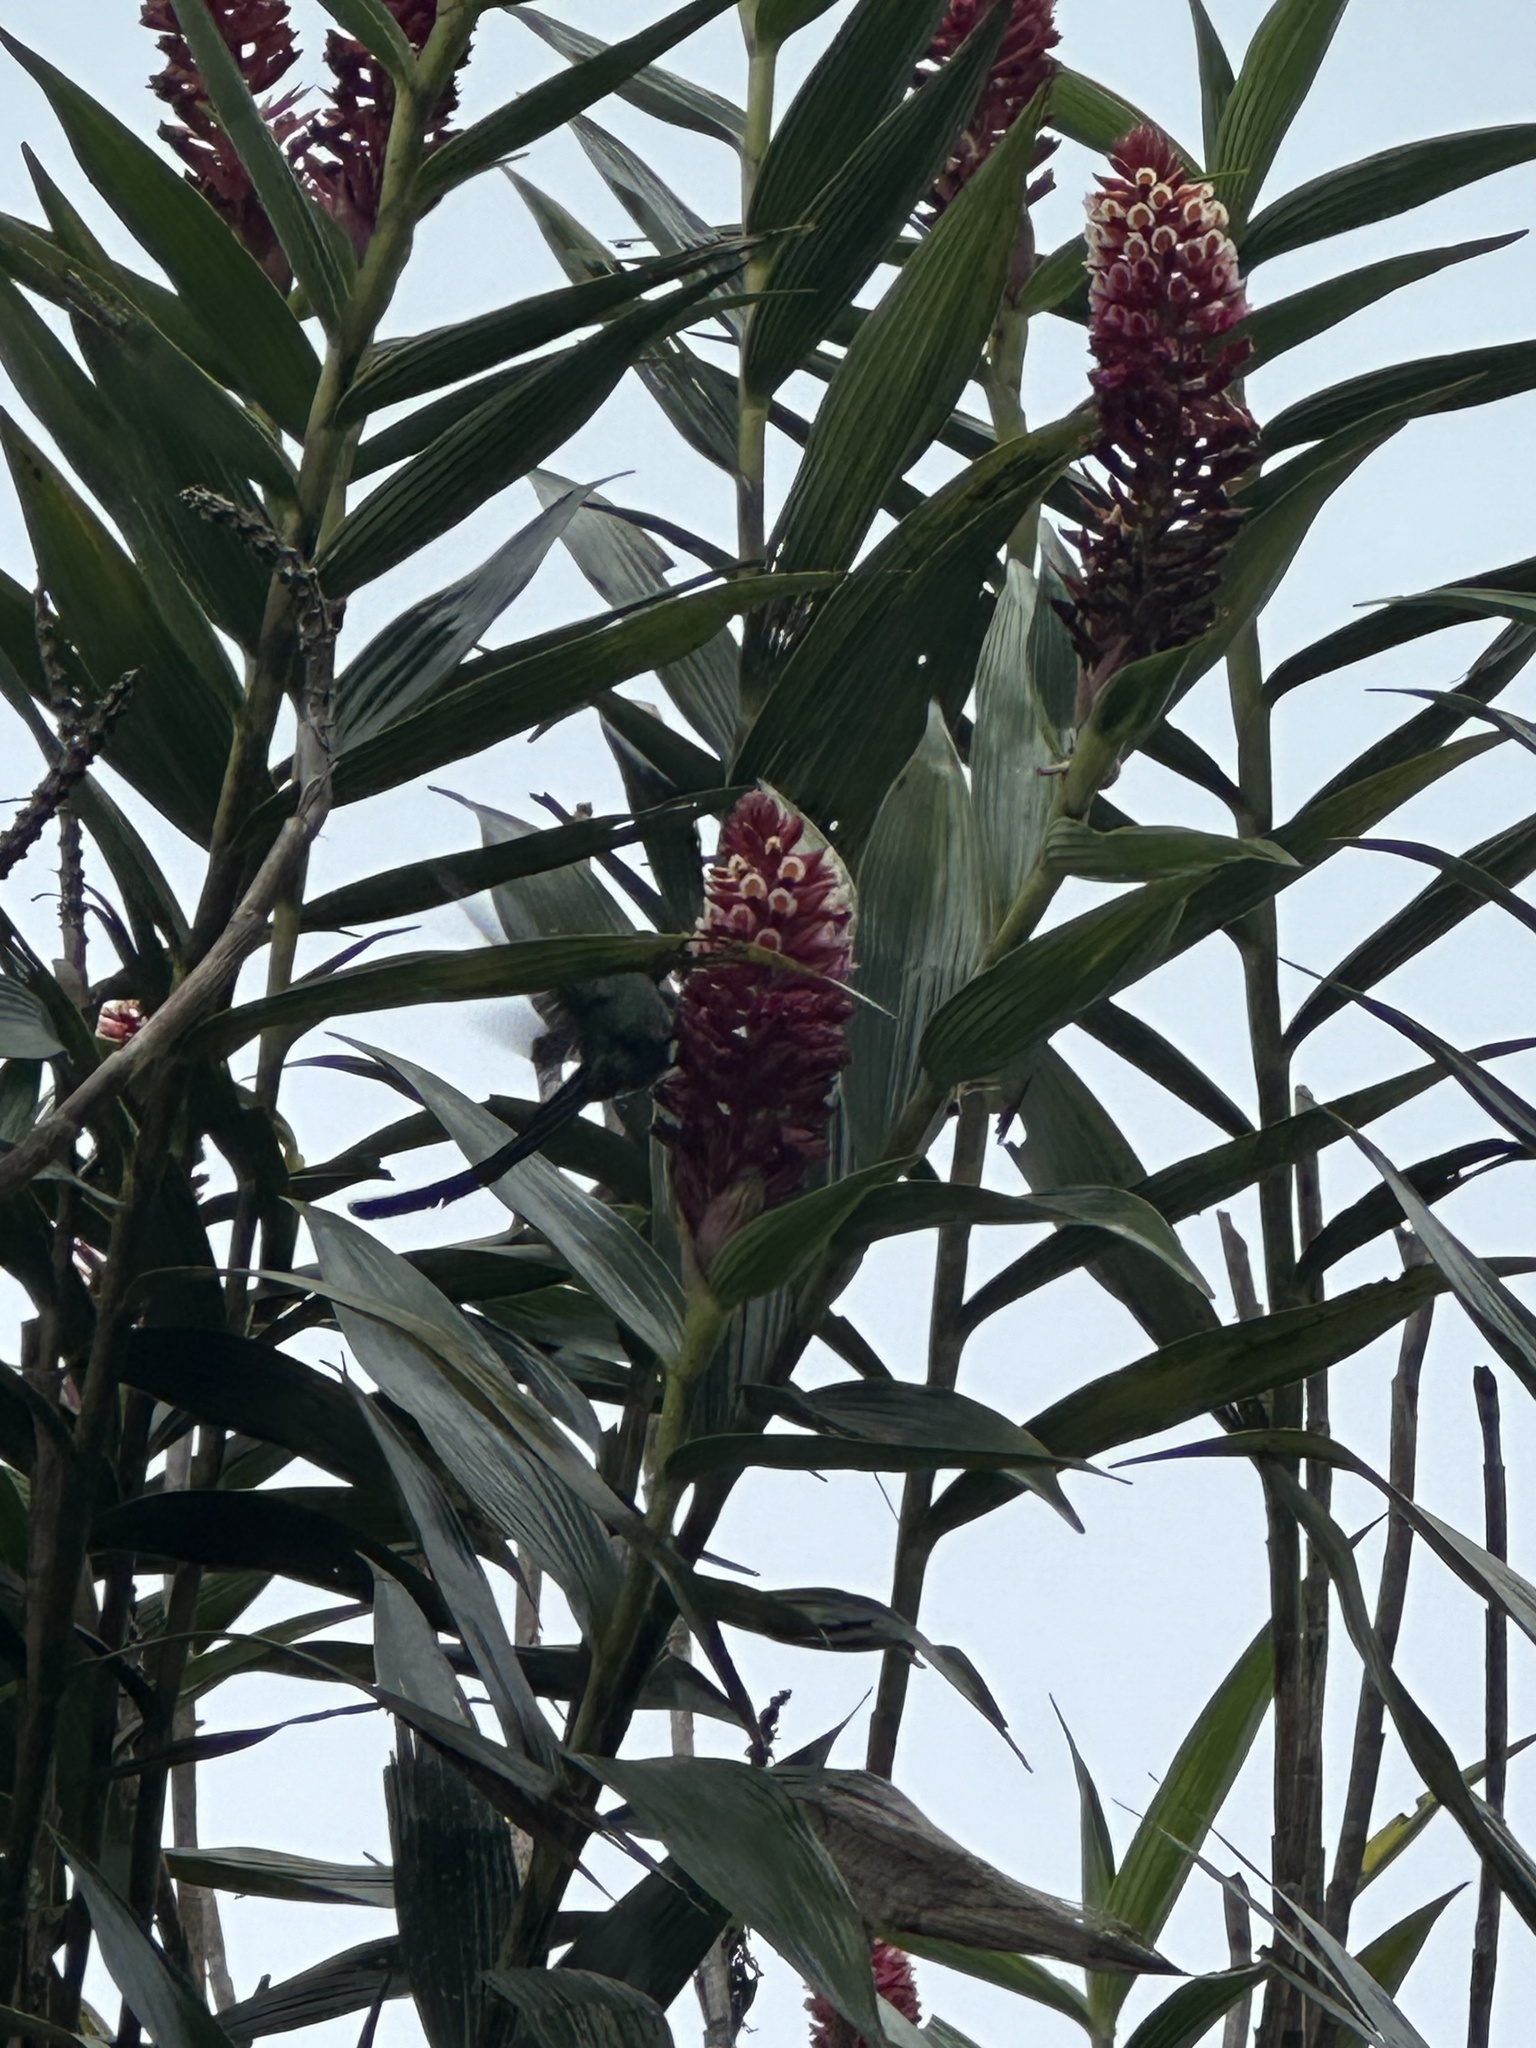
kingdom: Animalia
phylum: Chordata
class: Aves
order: Apodiformes
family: Trochilidae
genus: Aglaiocercus
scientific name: Aglaiocercus kingii
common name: Long-tailed sylph
